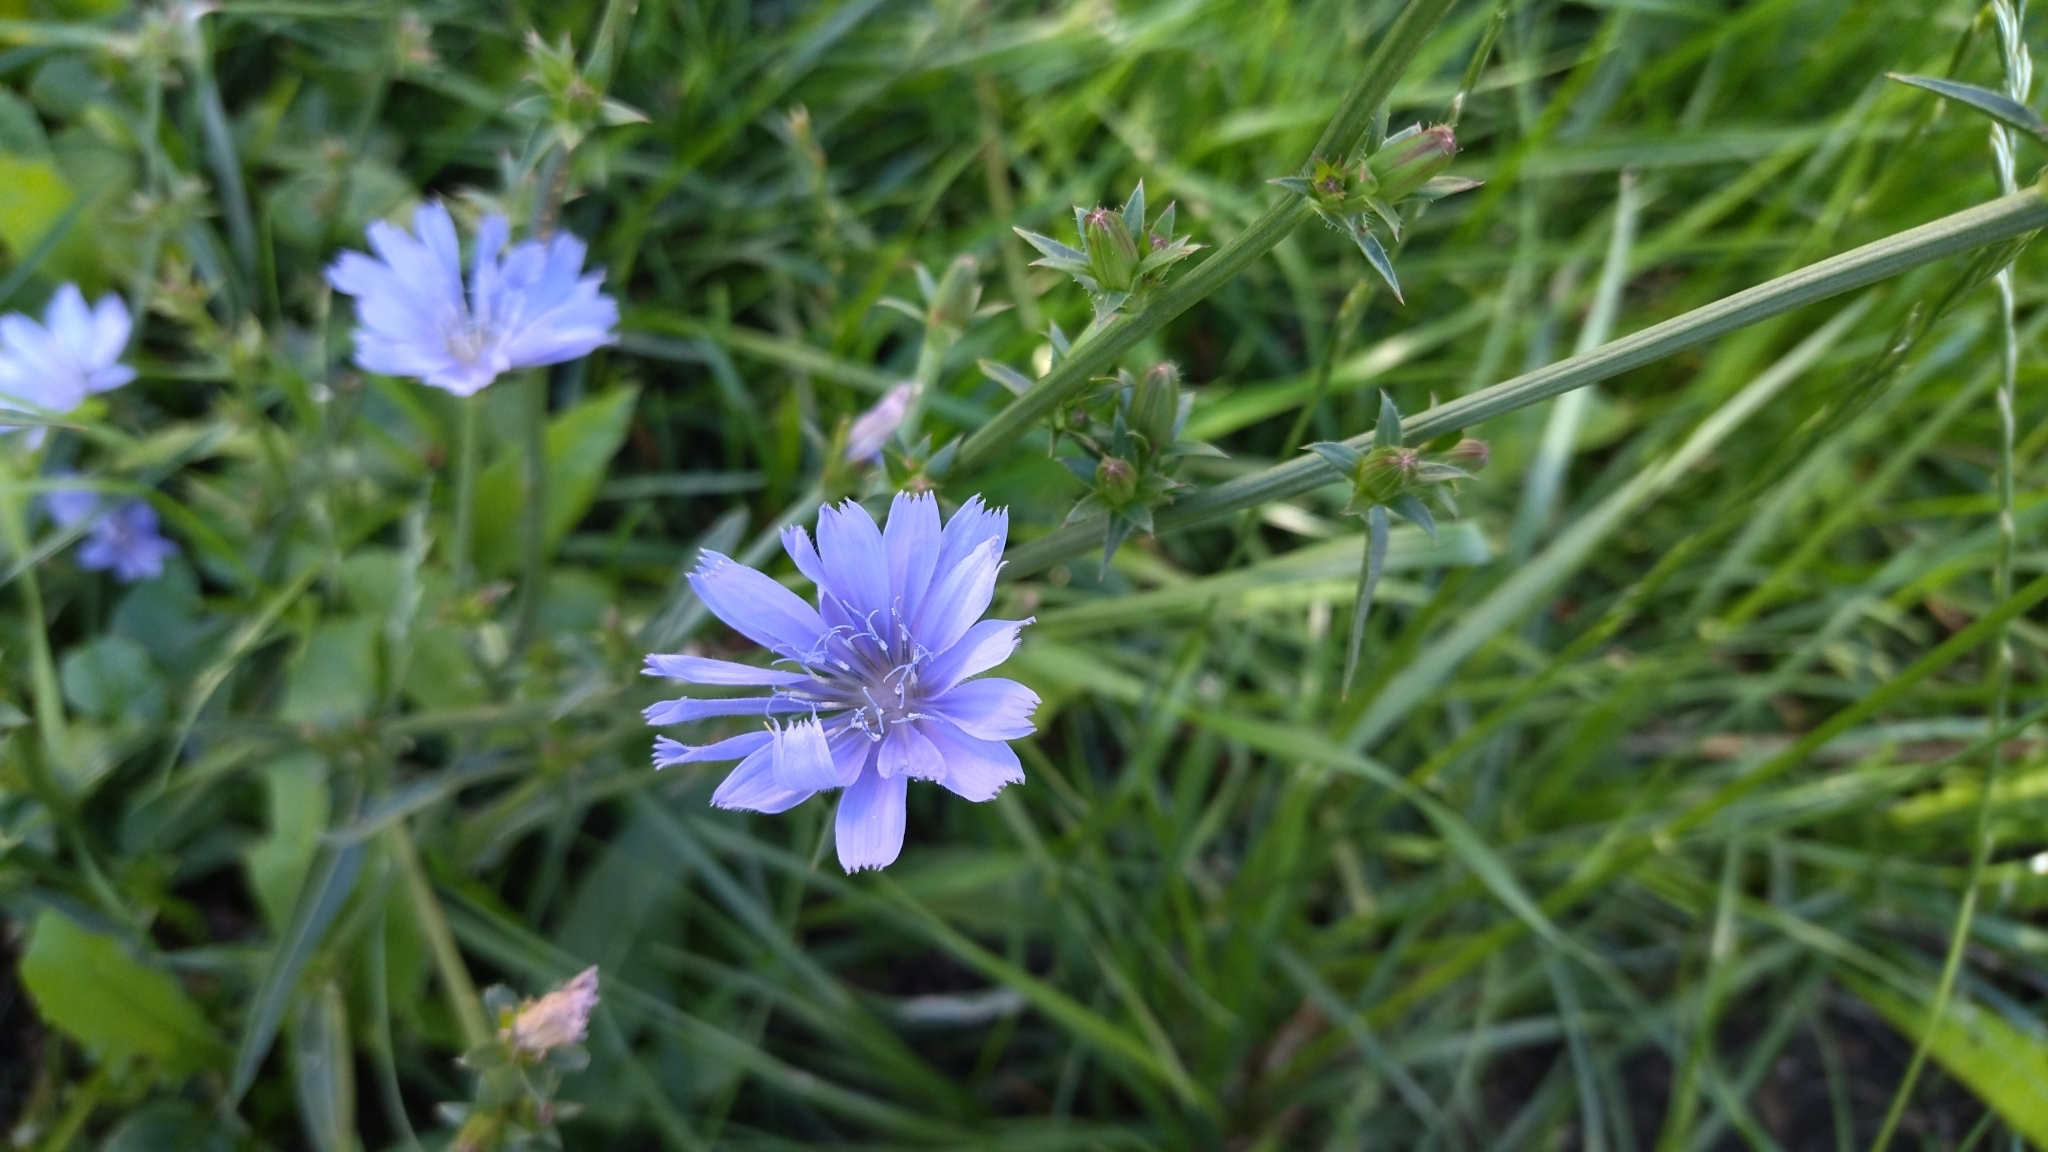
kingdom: Plantae
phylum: Tracheophyta
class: Magnoliopsida
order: Asterales
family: Asteraceae
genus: Cichorium
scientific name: Cichorium intybus
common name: Chicory
